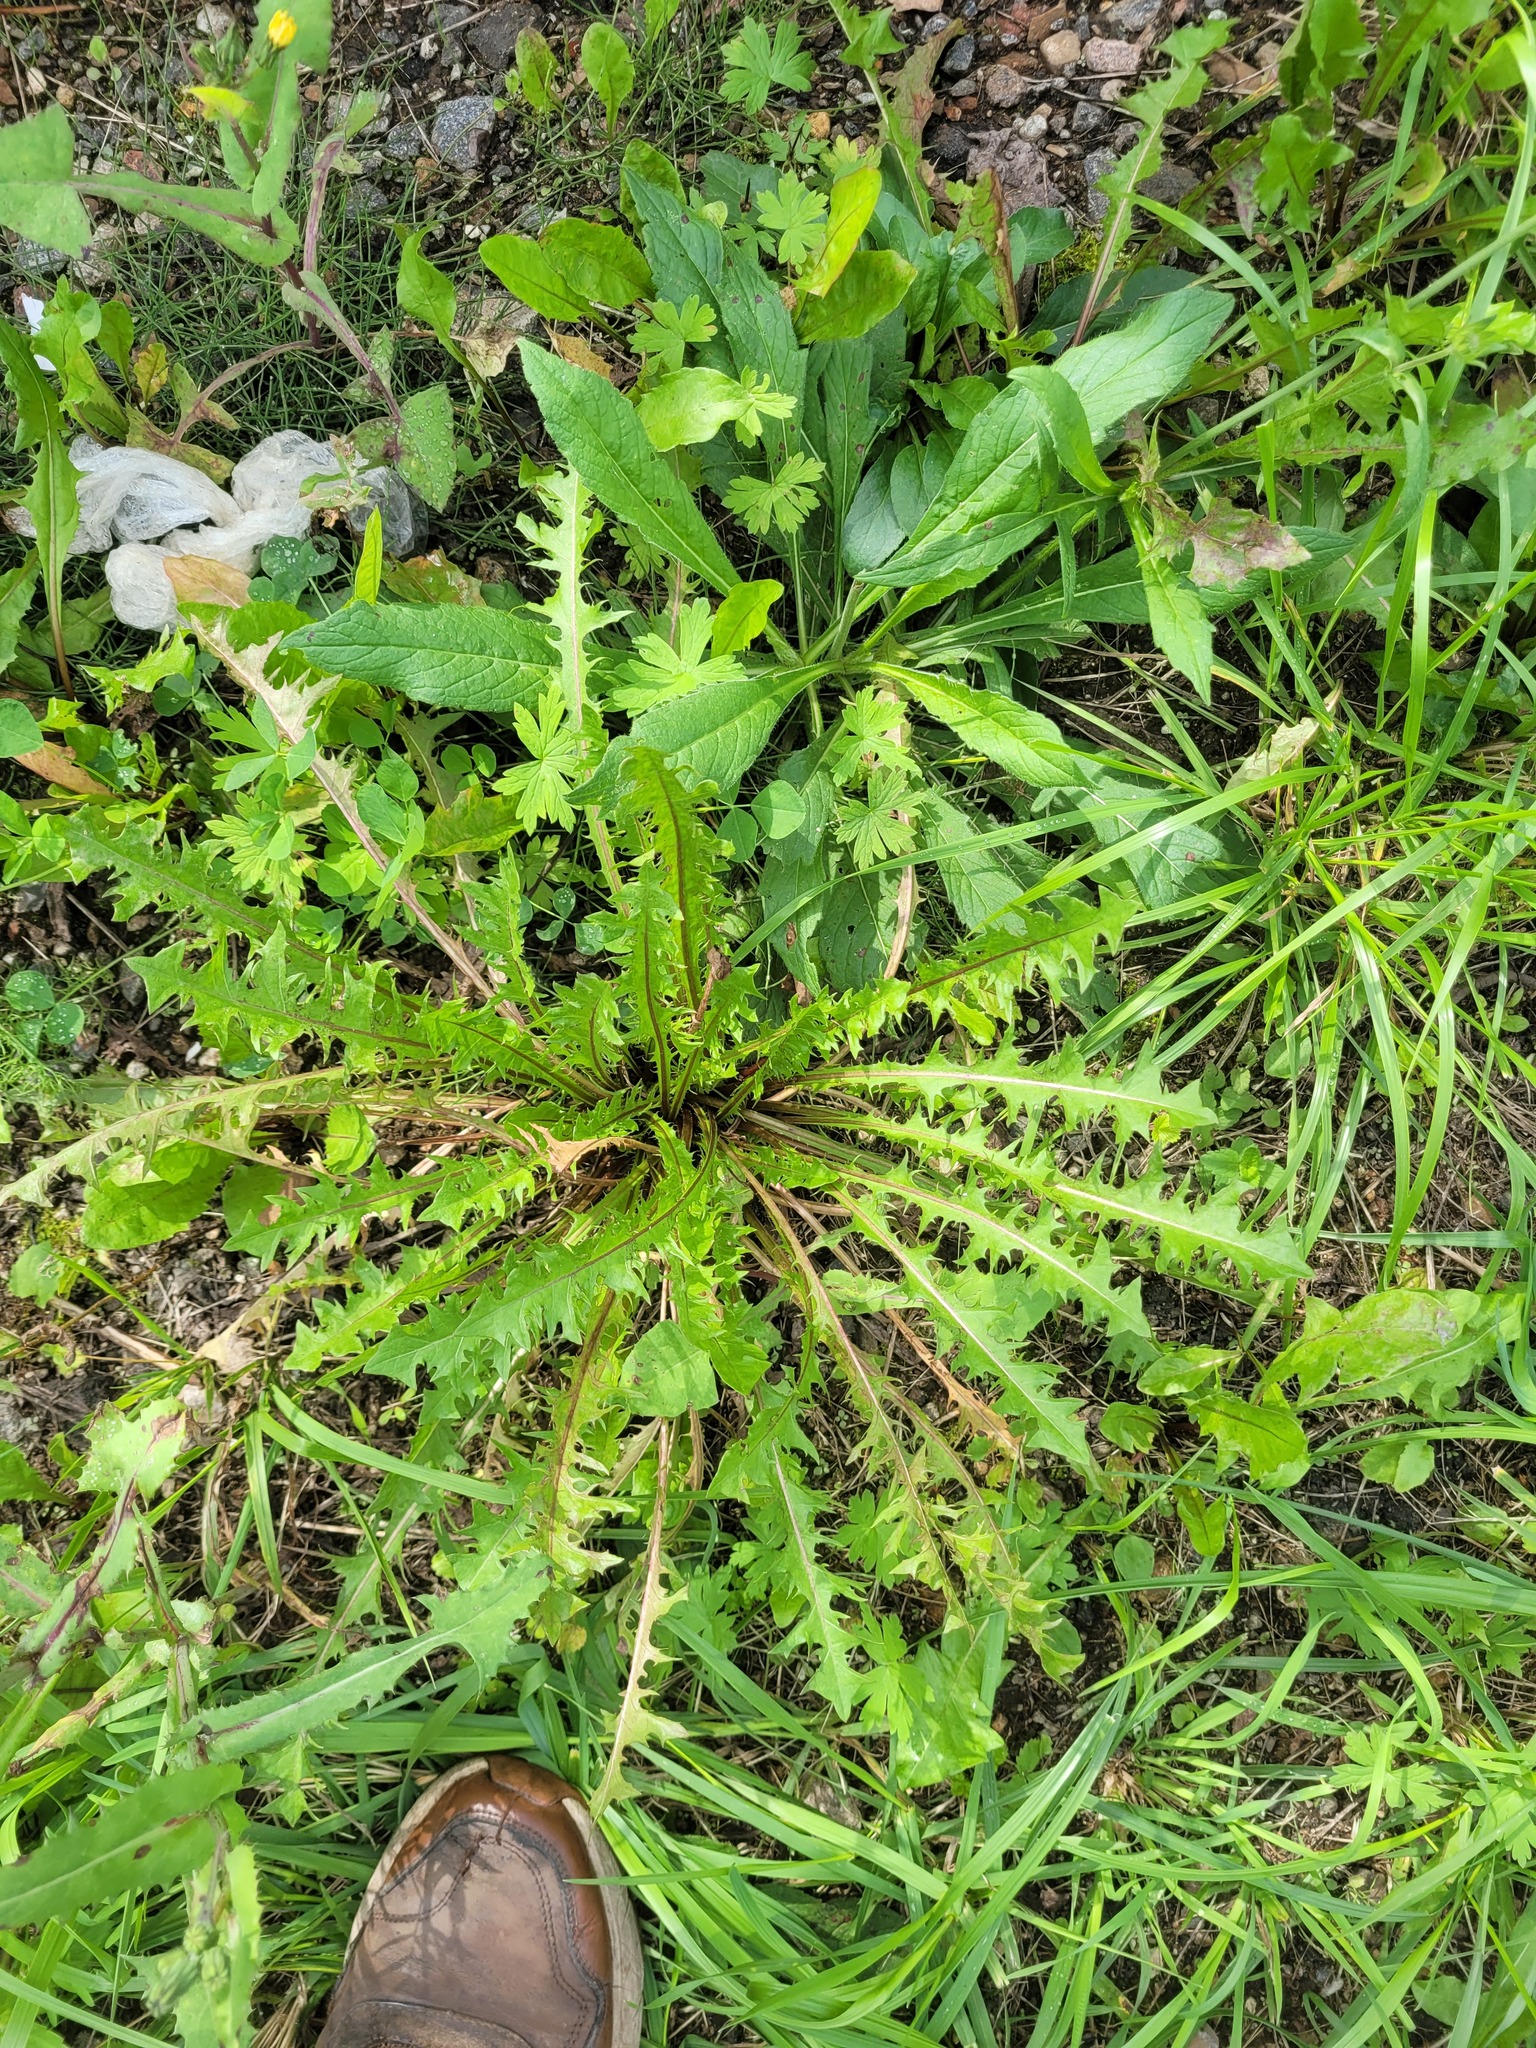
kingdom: Plantae
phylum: Tracheophyta
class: Magnoliopsida
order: Asterales
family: Asteraceae
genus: Taraxacum
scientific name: Taraxacum officinale
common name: Common dandelion
